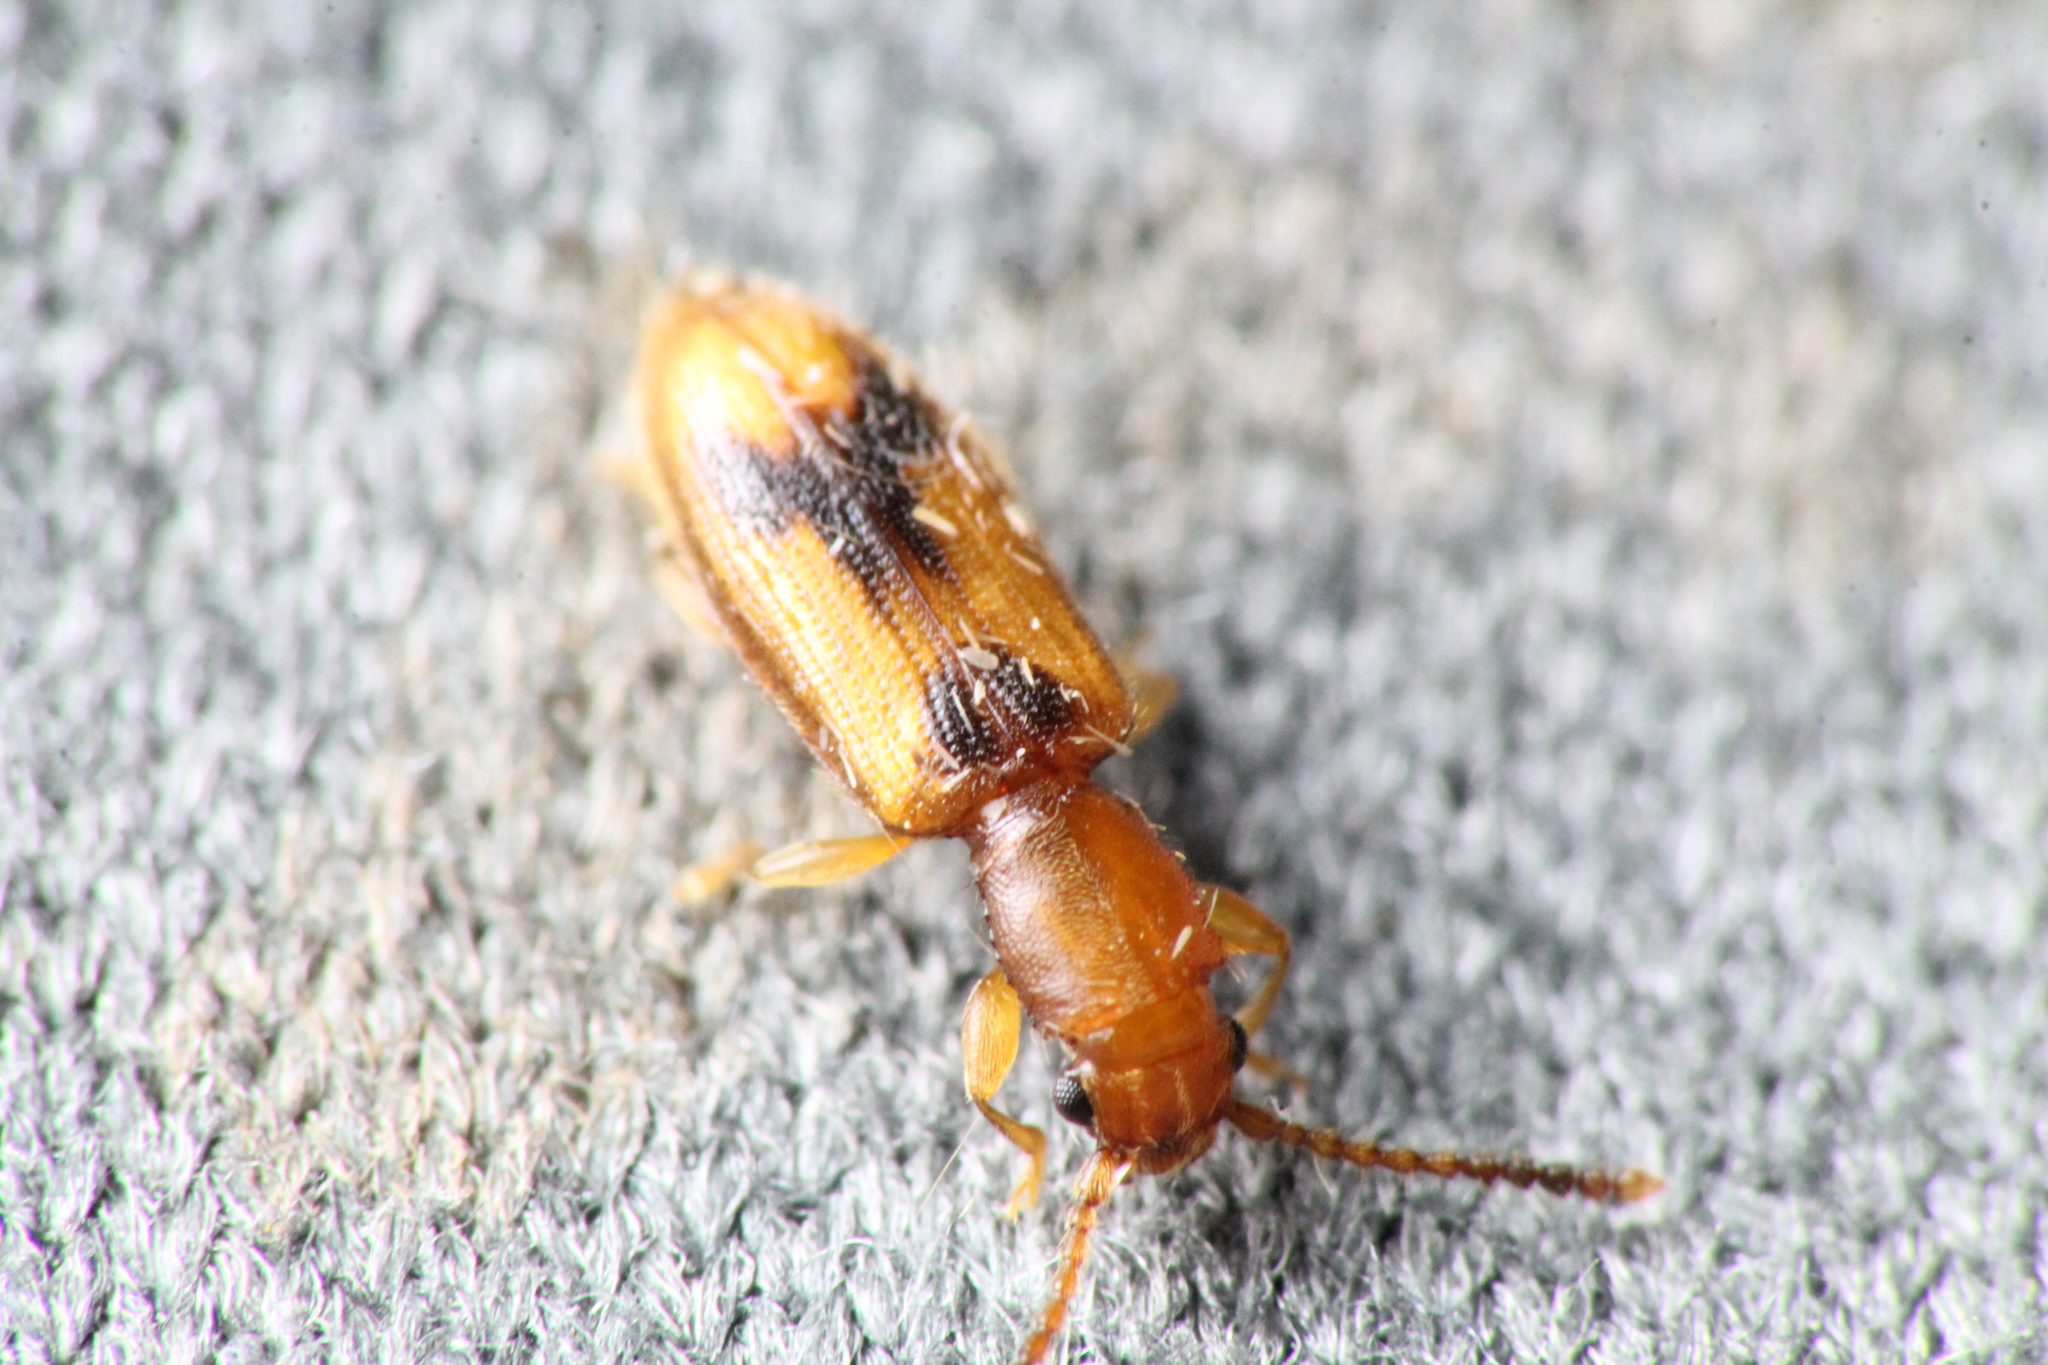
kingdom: Animalia
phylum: Arthropoda
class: Insecta
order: Coleoptera
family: Silvanidae
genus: Cryptamorpha
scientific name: Cryptamorpha desjardinsi
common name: Cryptamorpha
